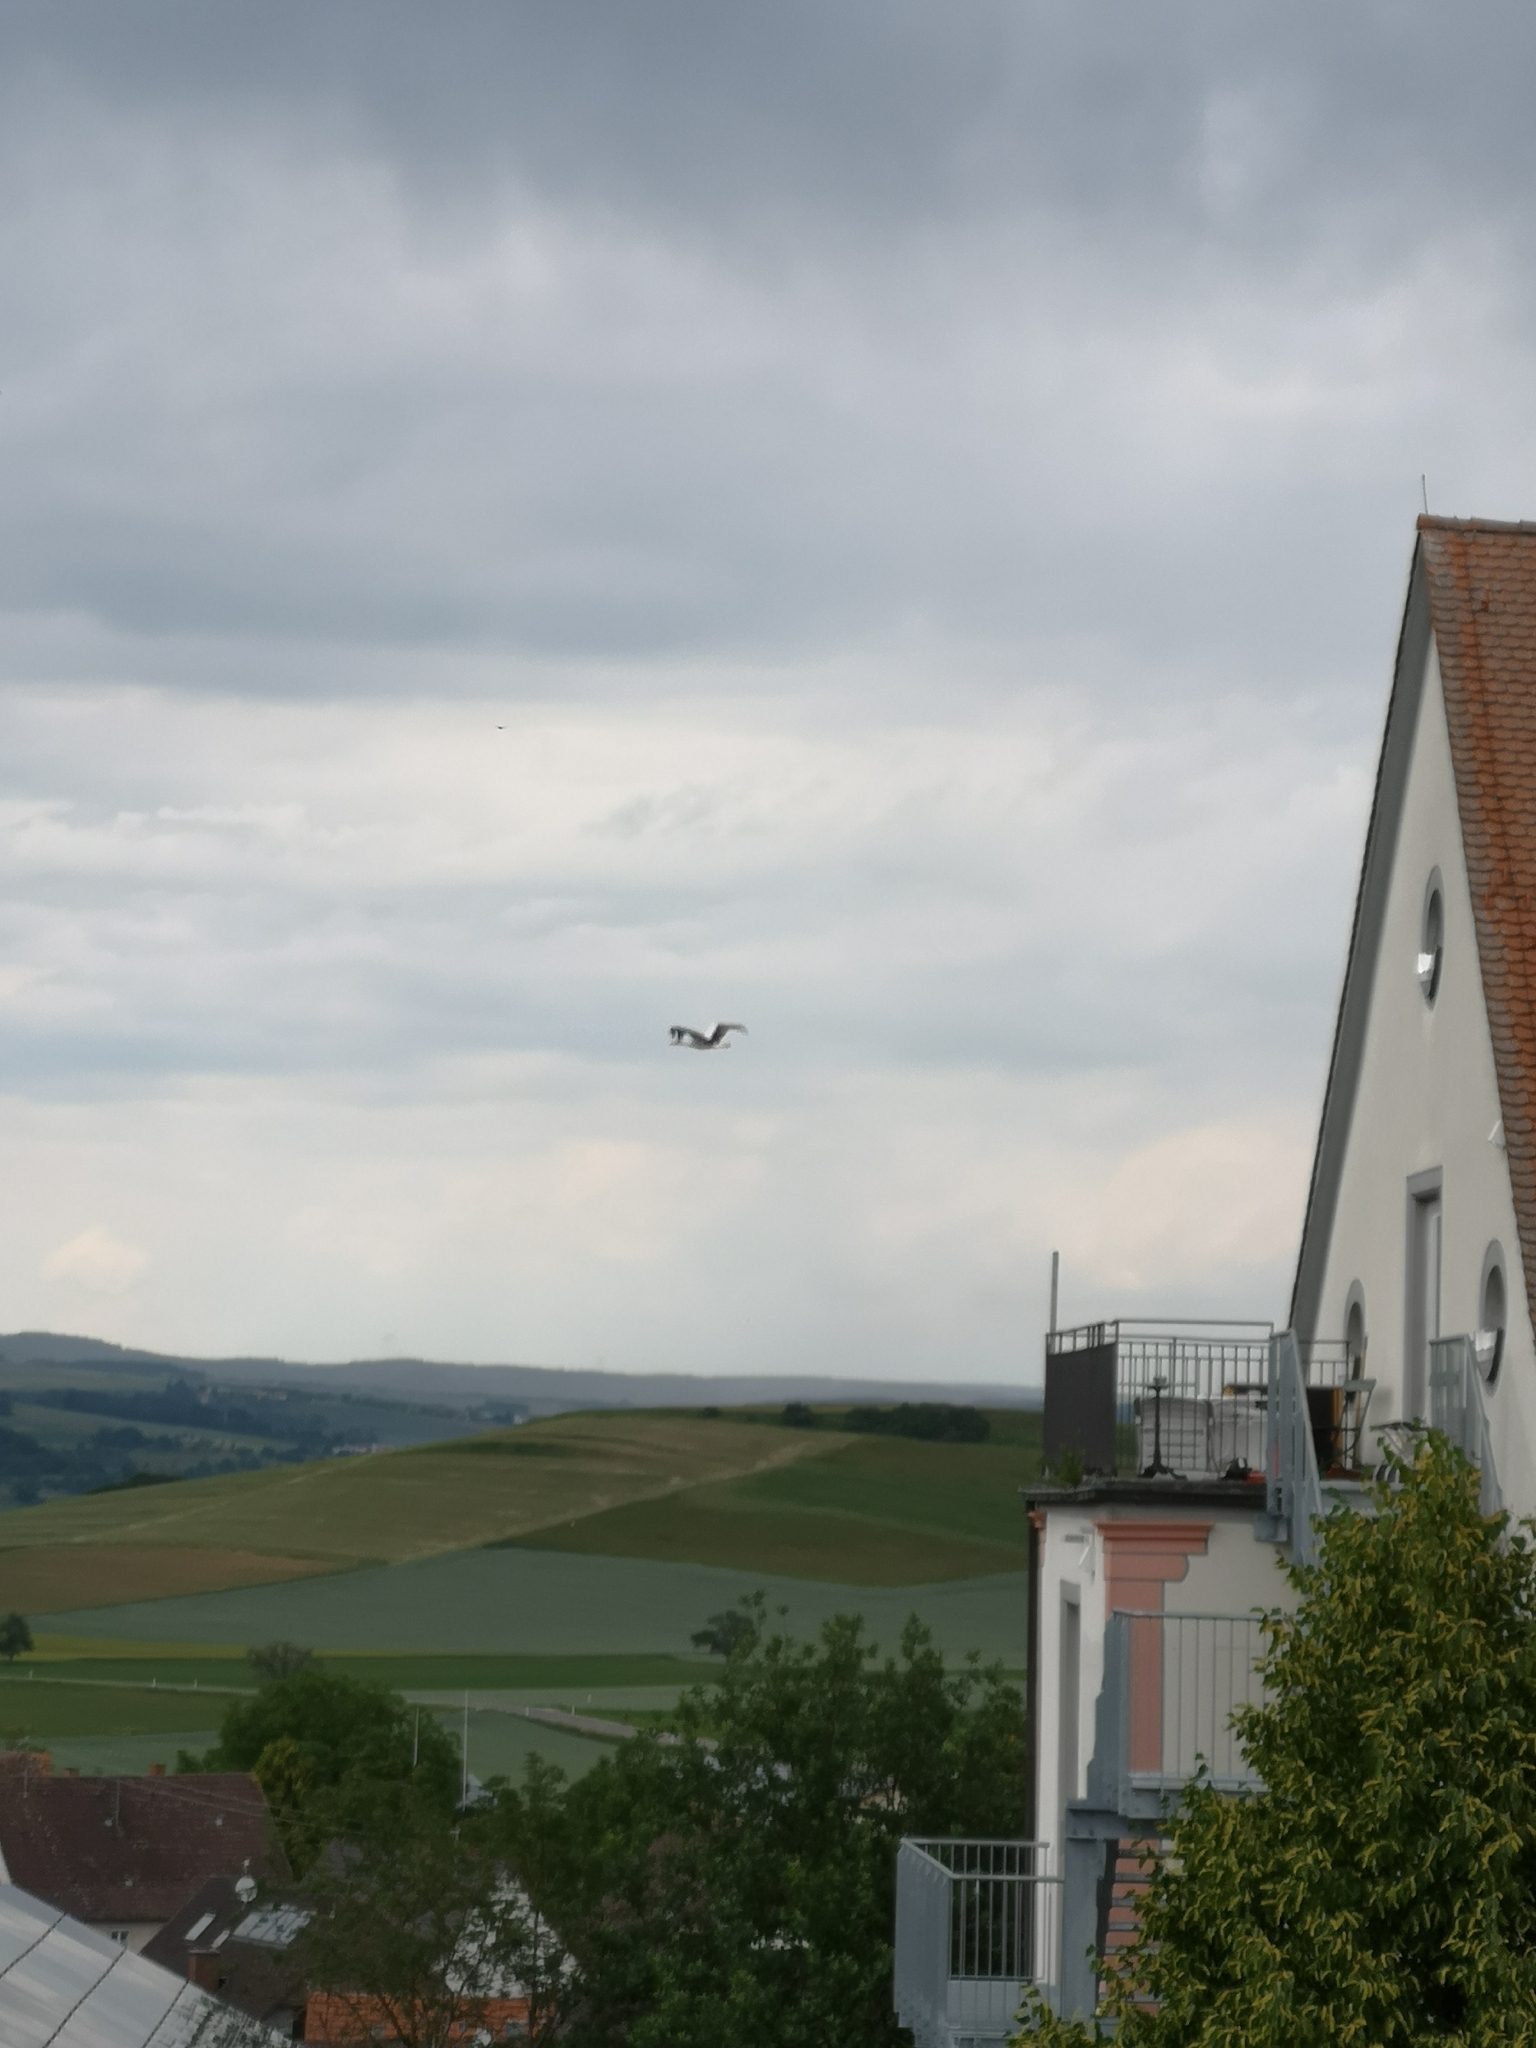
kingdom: Animalia
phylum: Chordata
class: Aves
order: Ciconiiformes
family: Ciconiidae
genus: Ciconia
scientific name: Ciconia ciconia
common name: White stork
